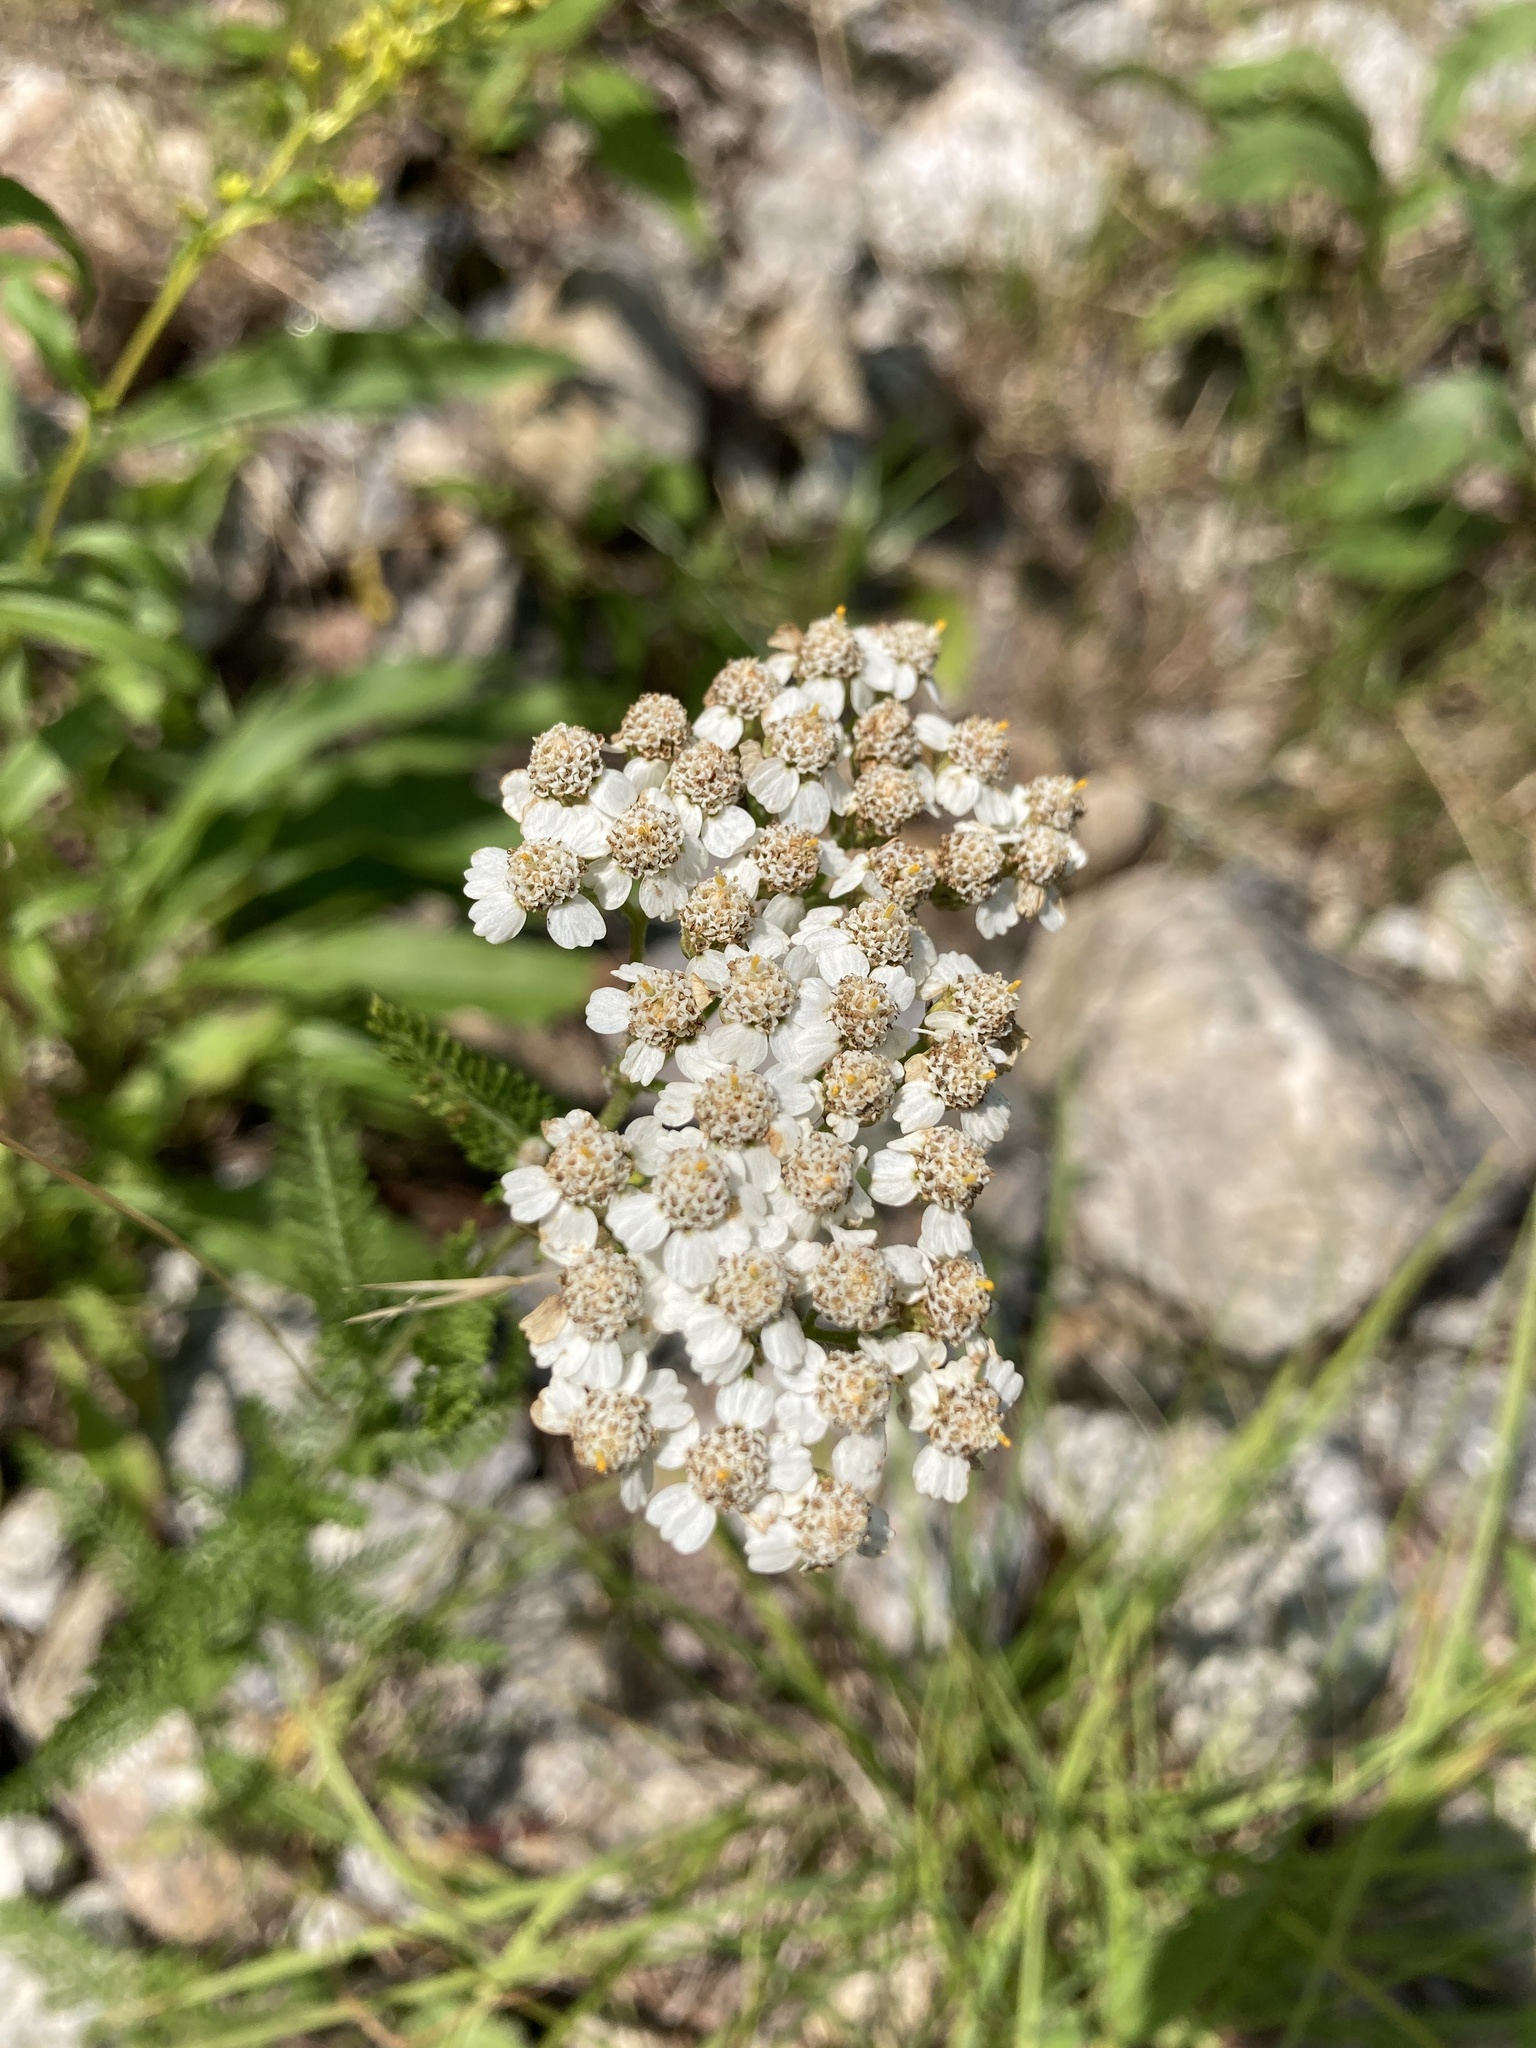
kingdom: Plantae
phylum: Tracheophyta
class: Magnoliopsida
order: Asterales
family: Asteraceae
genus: Achillea
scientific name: Achillea millefolium
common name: Yarrow
